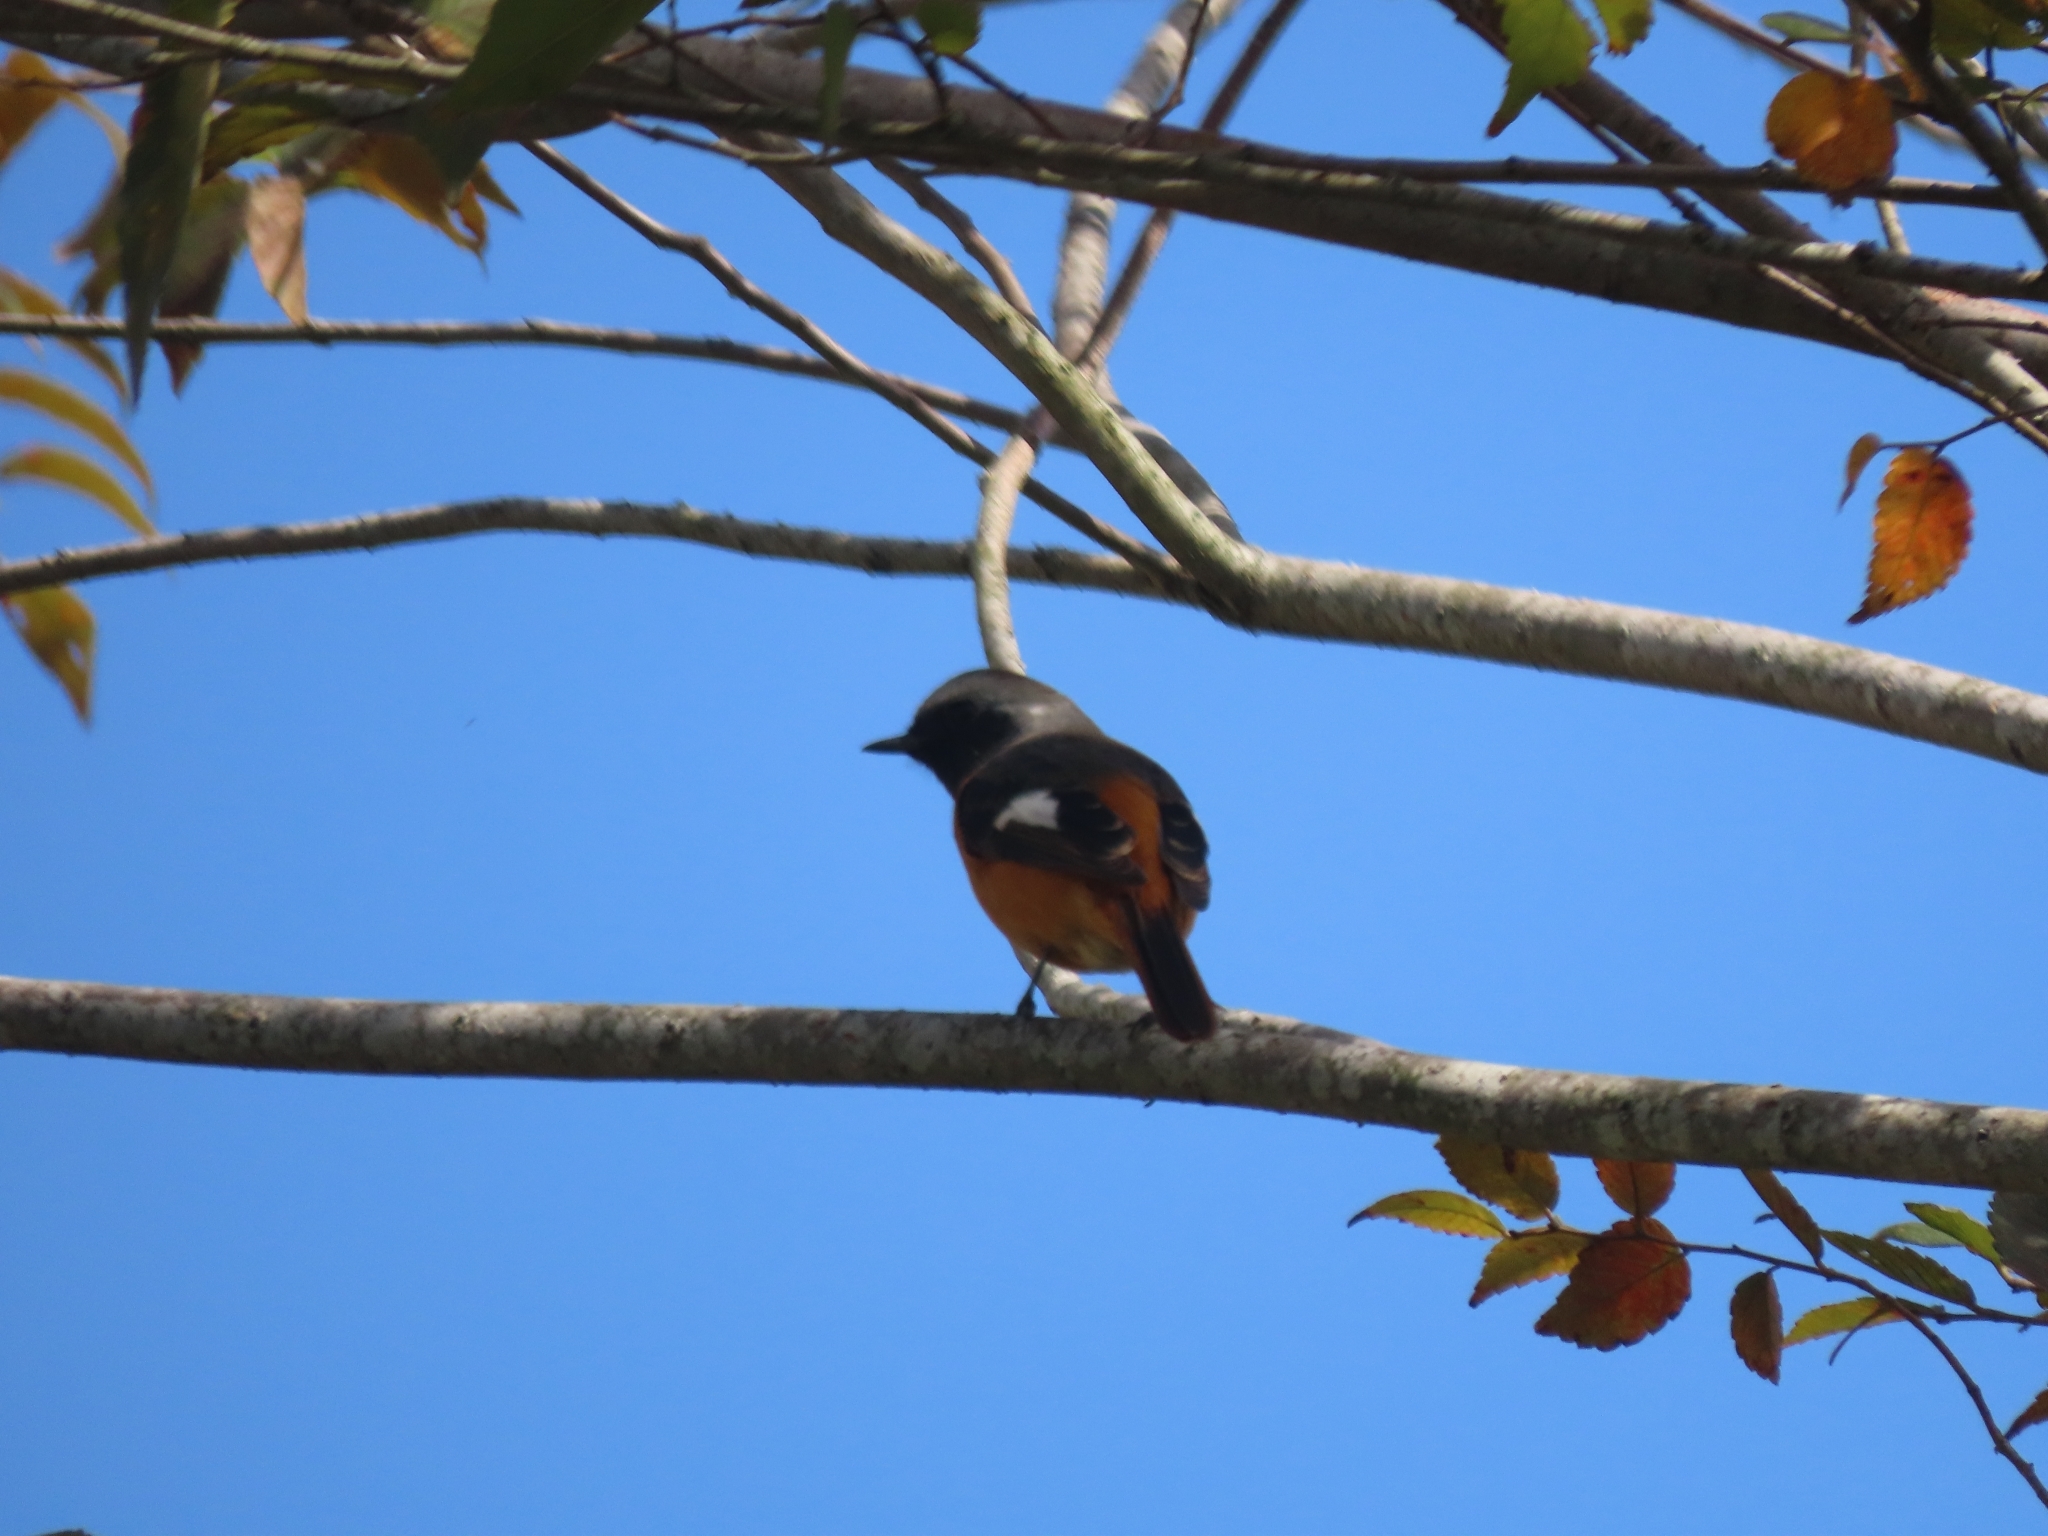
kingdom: Animalia
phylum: Chordata
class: Aves
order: Passeriformes
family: Muscicapidae
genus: Phoenicurus
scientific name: Phoenicurus auroreus
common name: Daurian redstart
